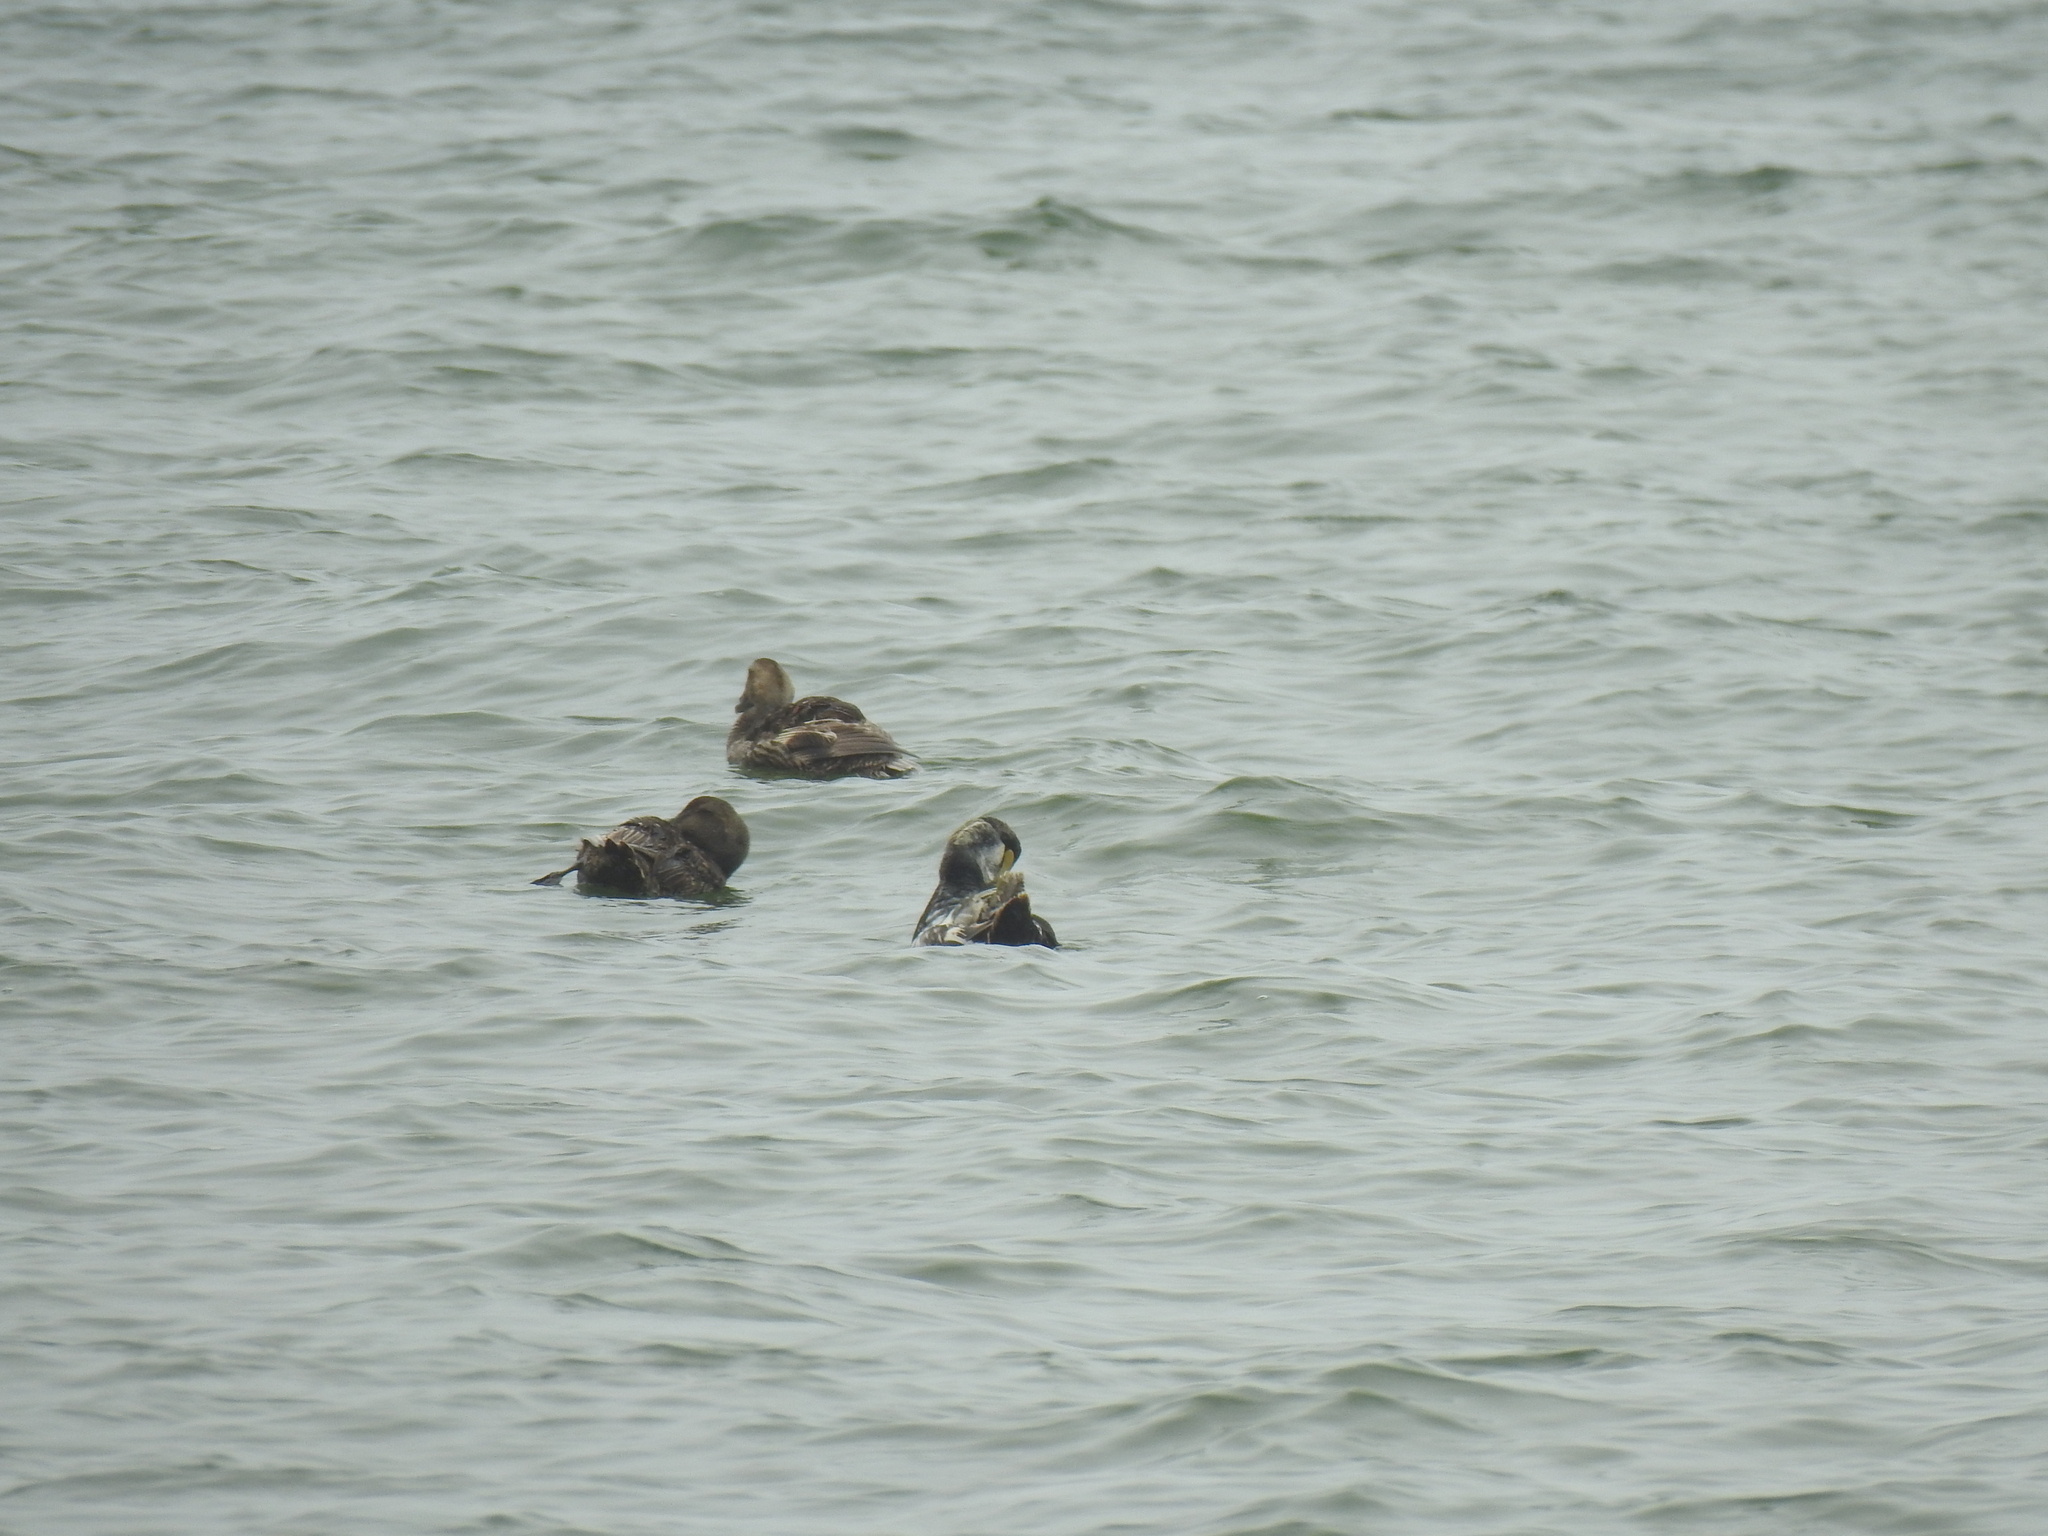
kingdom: Animalia
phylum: Chordata
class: Aves
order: Anseriformes
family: Anatidae
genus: Somateria
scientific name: Somateria mollissima
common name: Common eider
